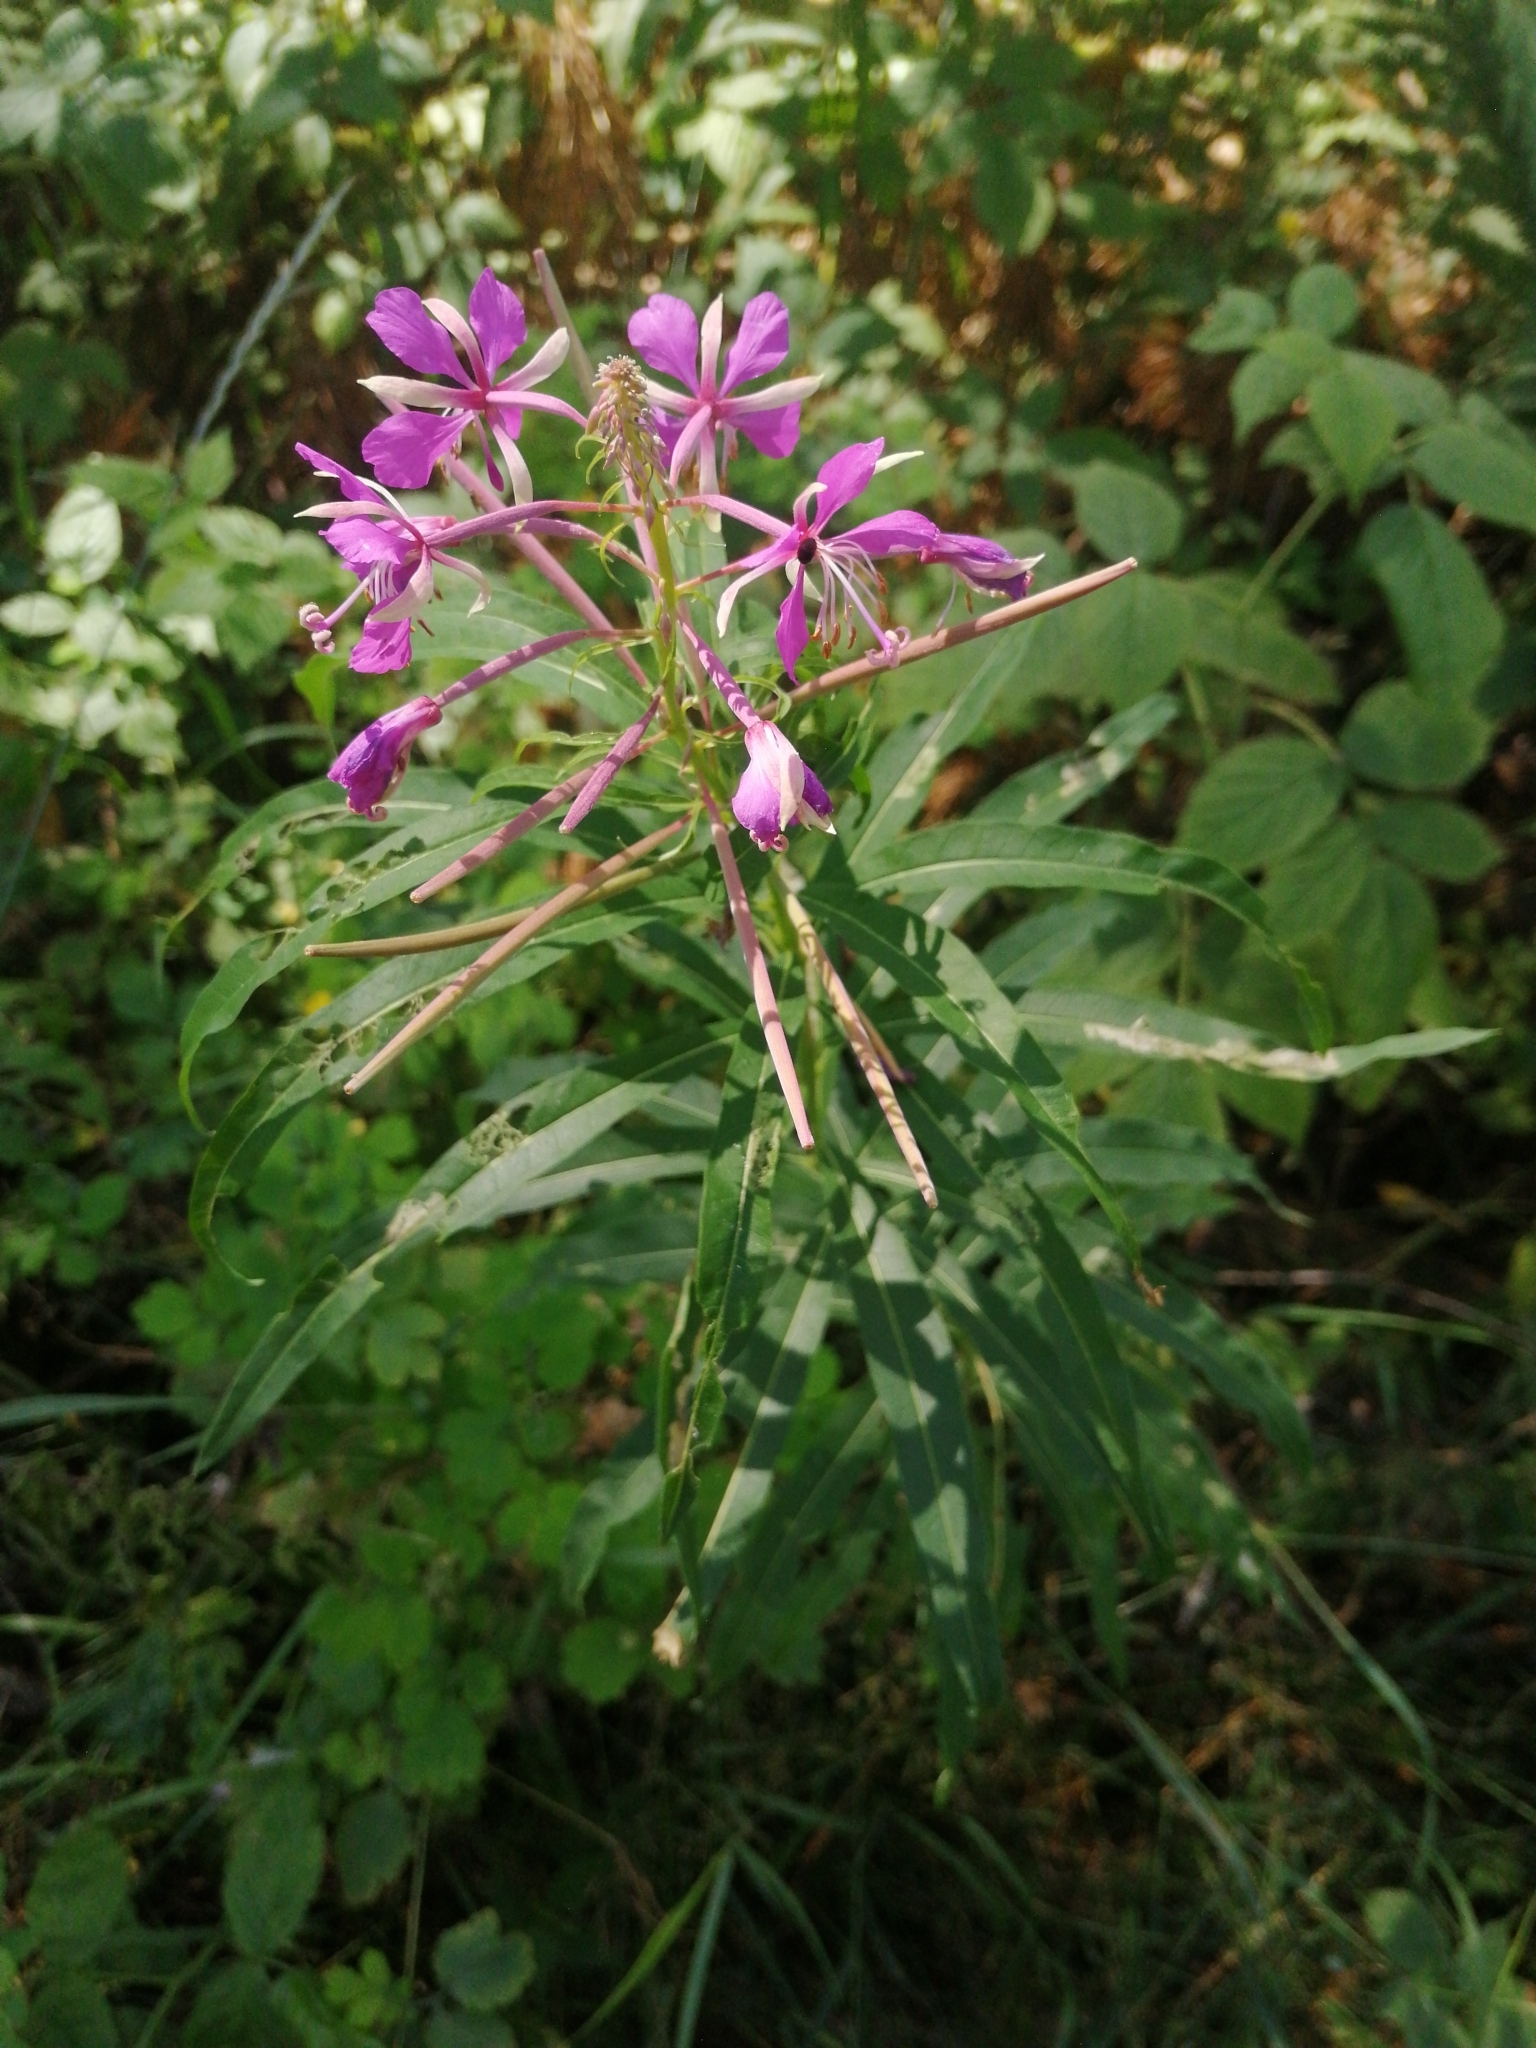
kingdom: Plantae
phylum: Tracheophyta
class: Magnoliopsida
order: Myrtales
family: Onagraceae
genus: Chamaenerion
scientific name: Chamaenerion angustifolium
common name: Fireweed
